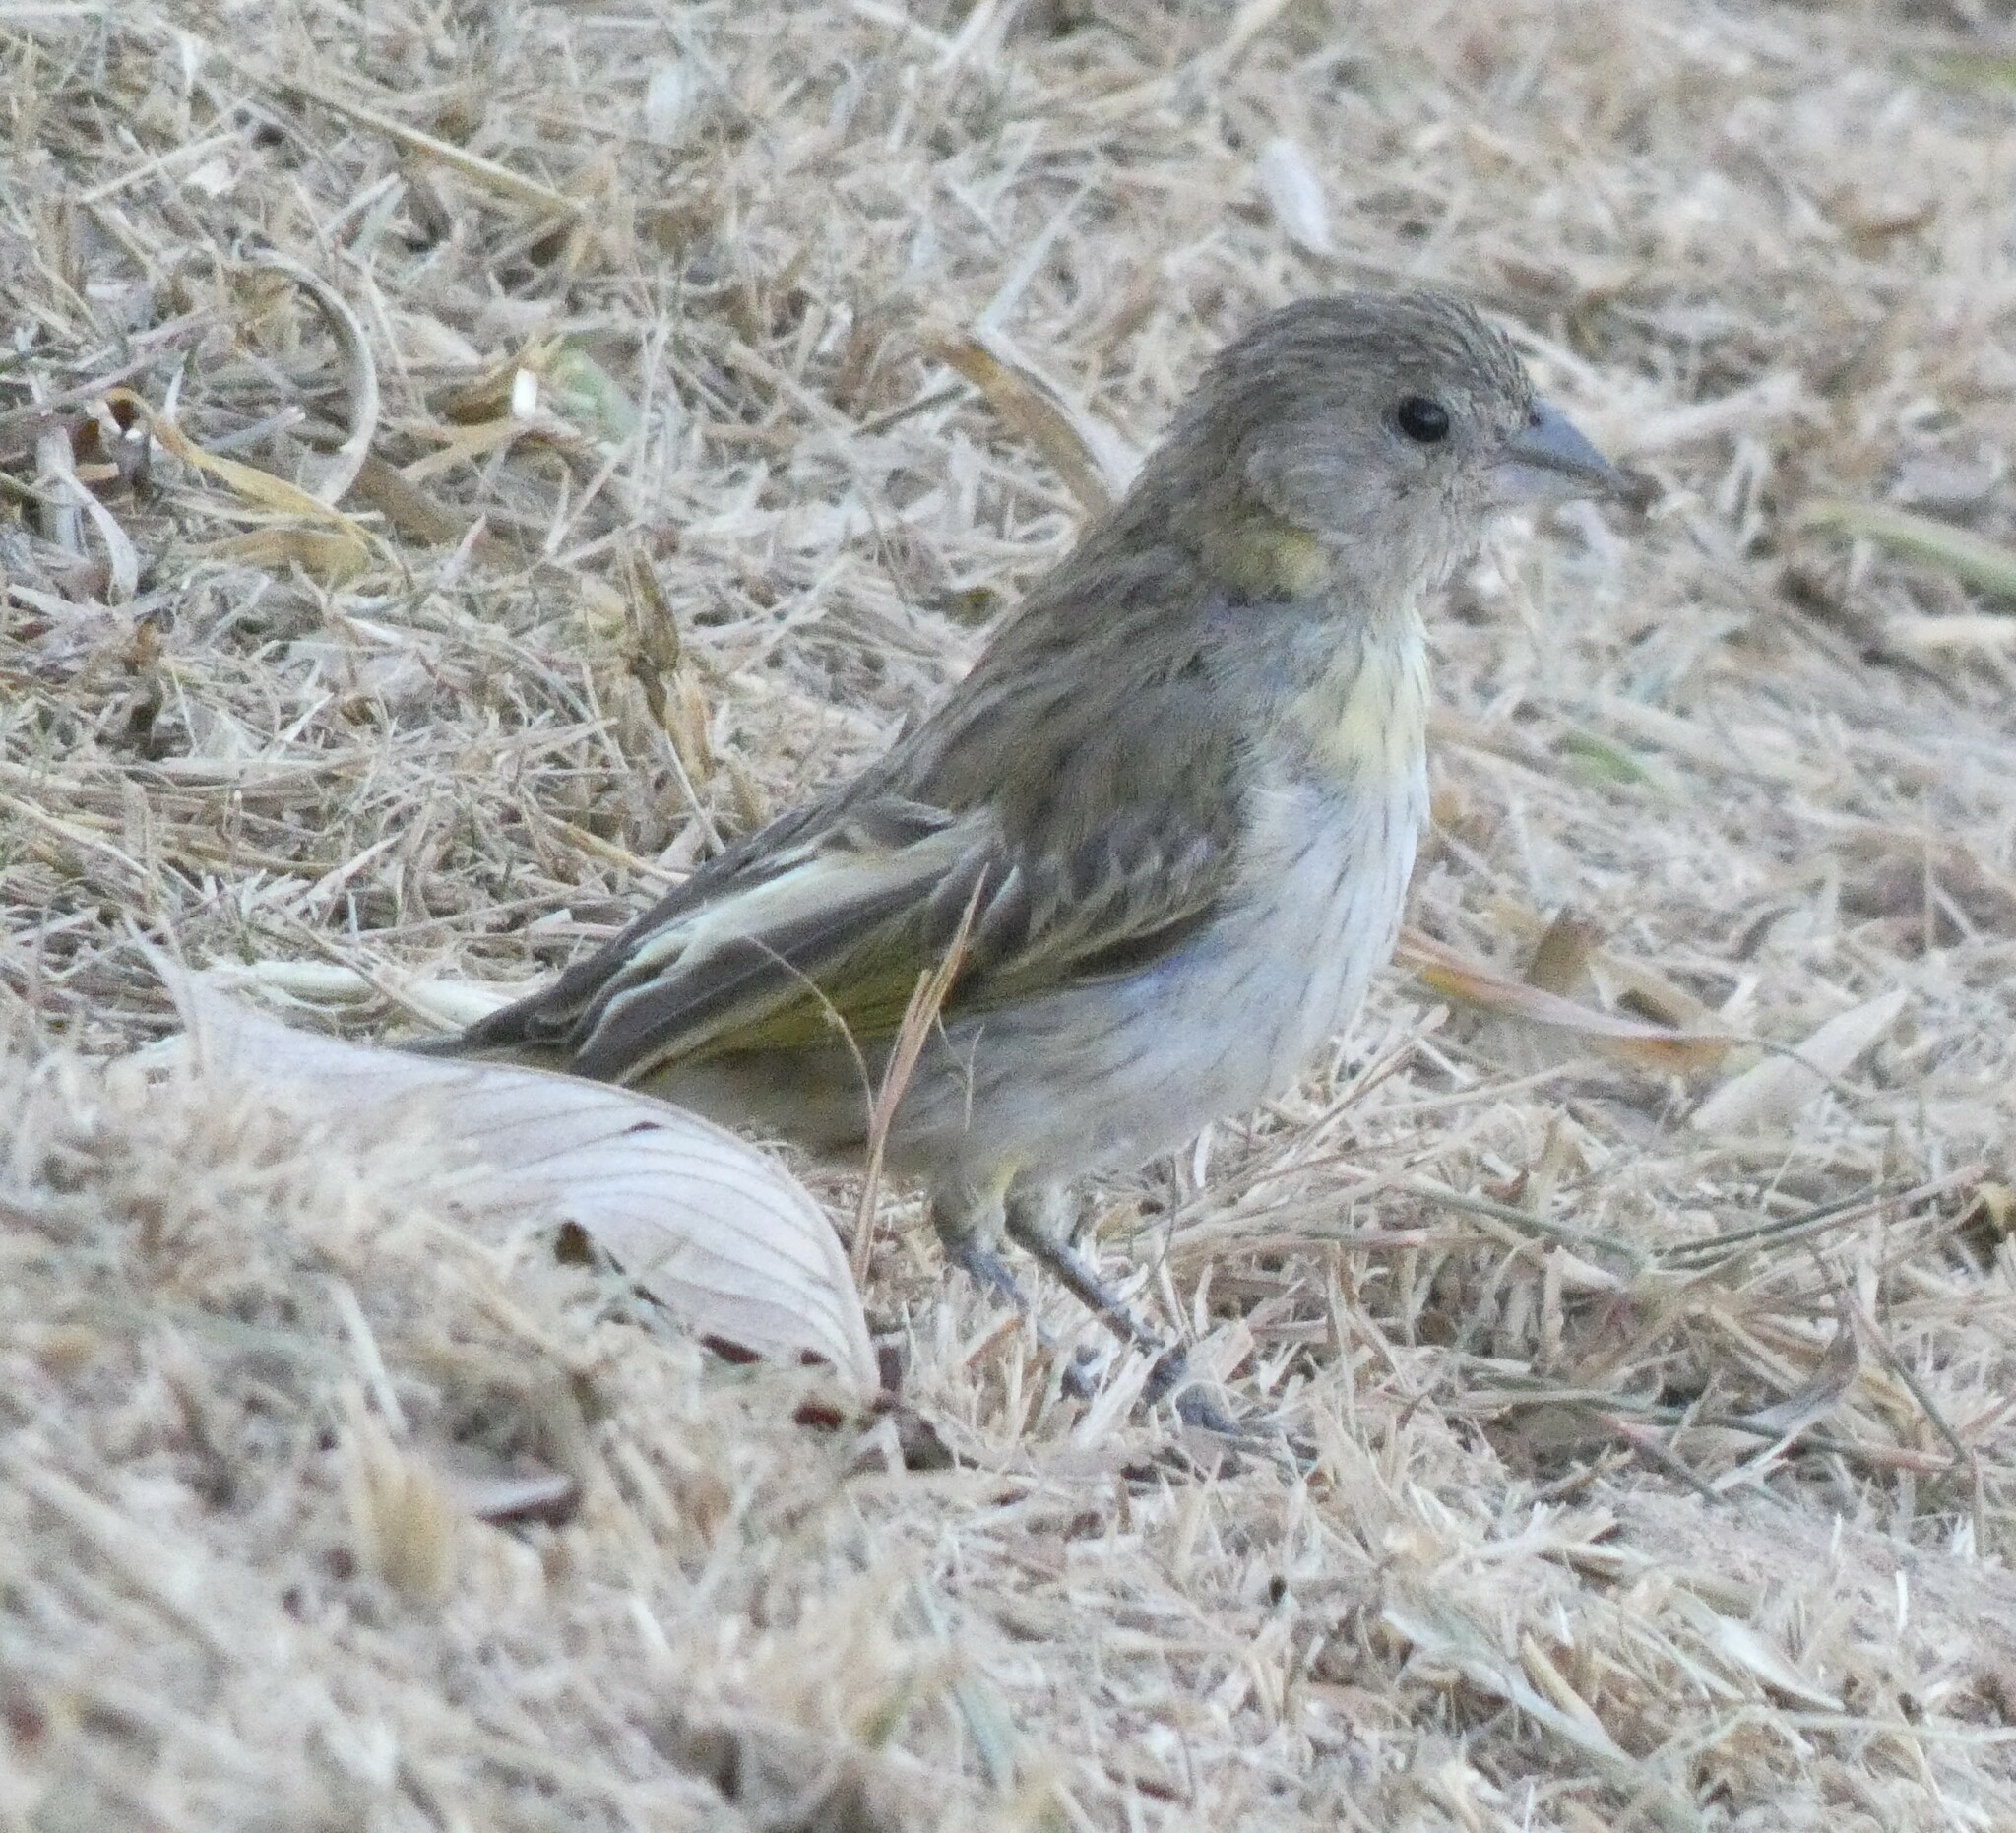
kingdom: Animalia
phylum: Chordata
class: Aves
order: Passeriformes
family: Thraupidae
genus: Sicalis
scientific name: Sicalis flaveola
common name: Saffron finch
